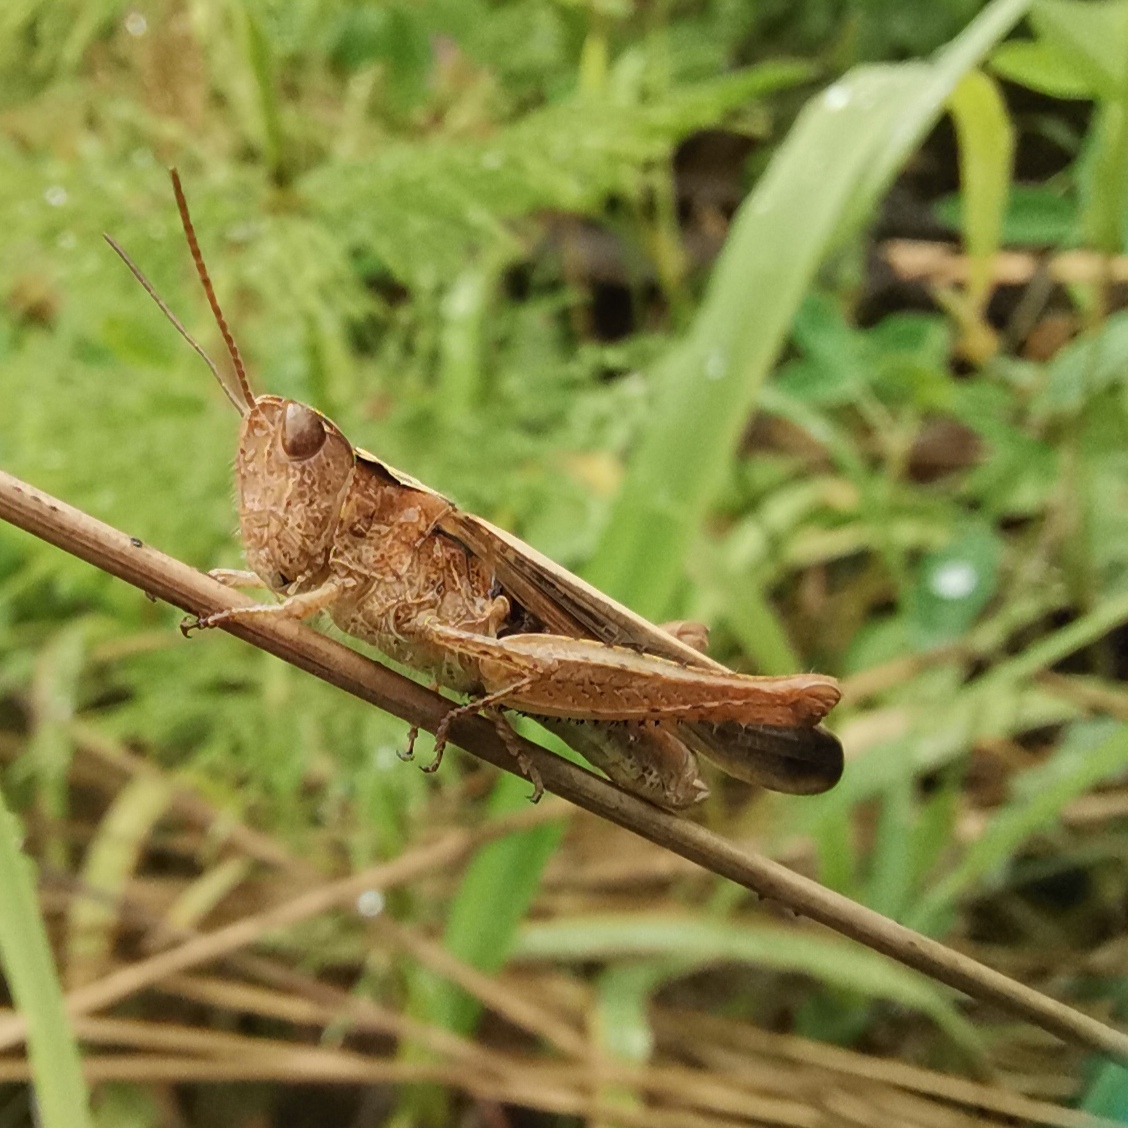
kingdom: Animalia
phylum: Arthropoda
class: Insecta
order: Orthoptera
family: Acrididae
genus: Chorthippus
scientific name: Chorthippus brunneus
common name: Field grasshopper
